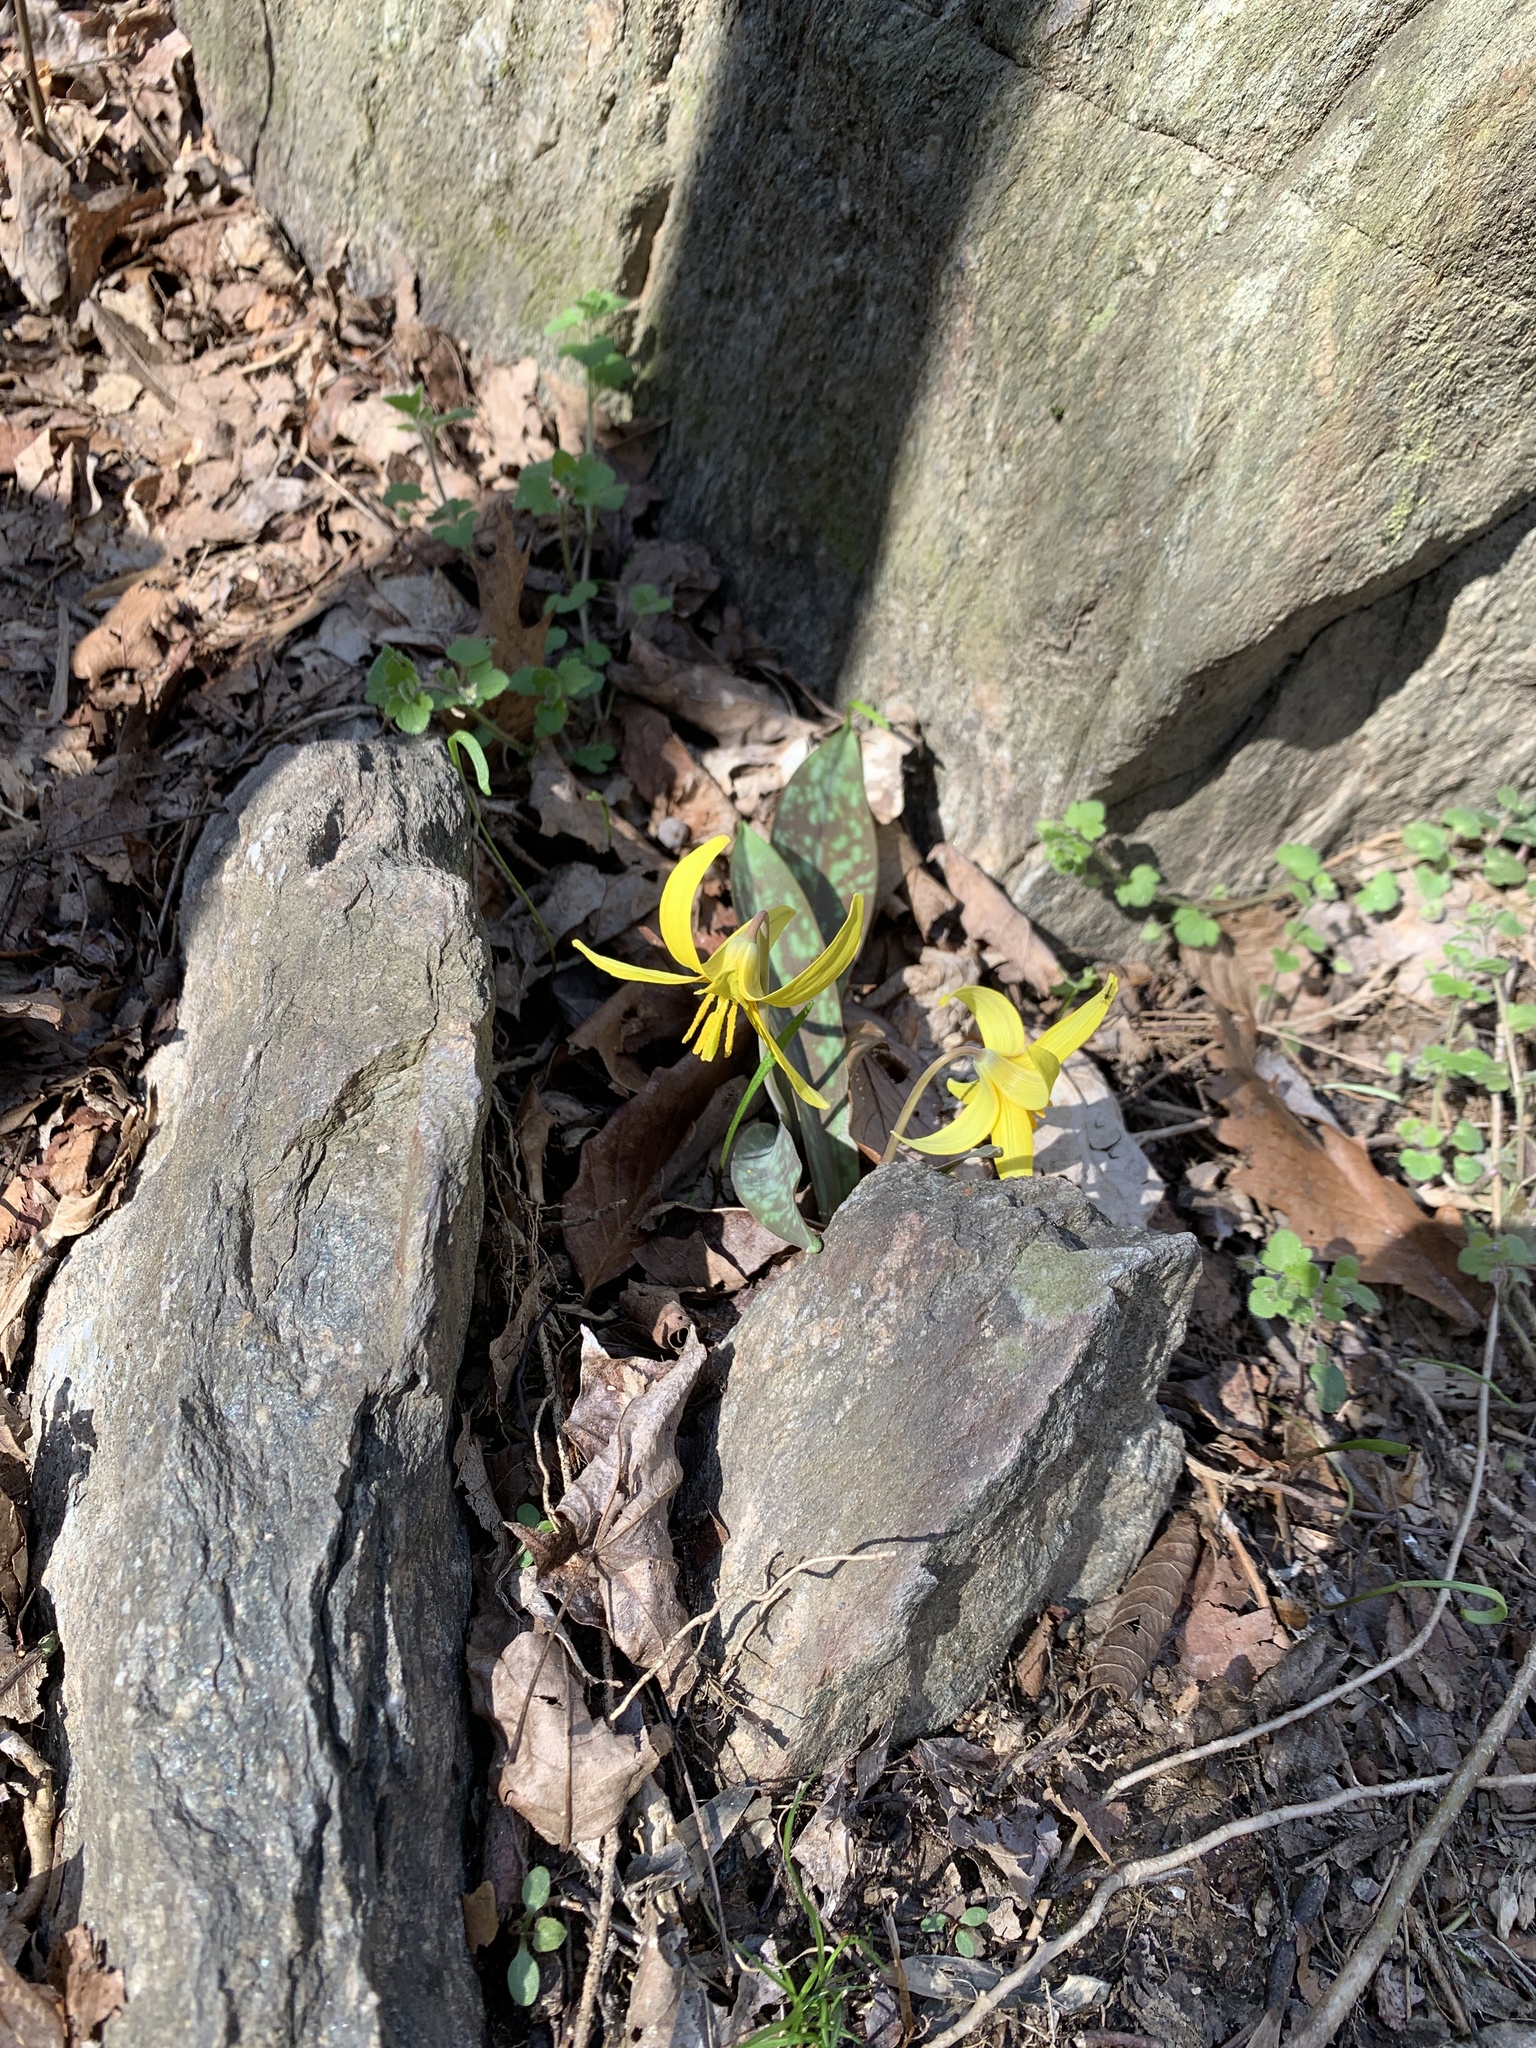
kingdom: Plantae
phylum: Tracheophyta
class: Liliopsida
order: Liliales
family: Liliaceae
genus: Erythronium
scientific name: Erythronium americanum
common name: Yellow adder's-tongue
